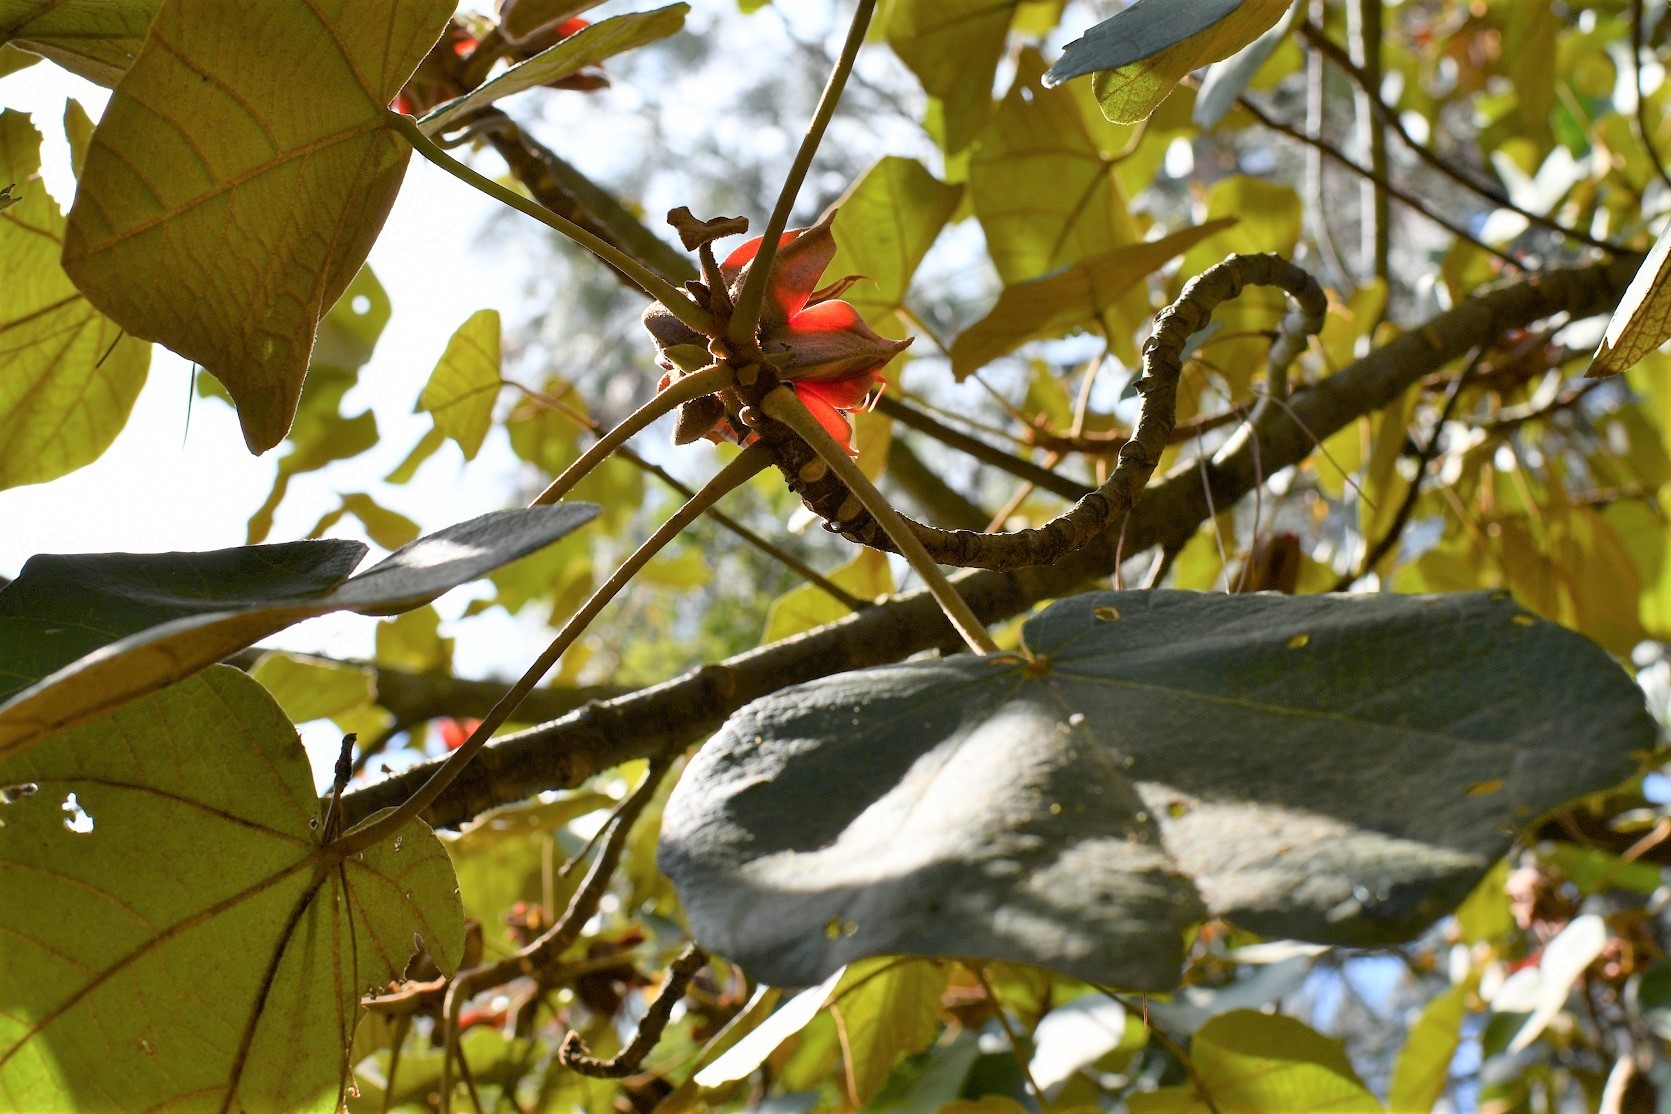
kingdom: Plantae
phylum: Tracheophyta
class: Magnoliopsida
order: Malvales
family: Malvaceae
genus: Chiranthodendron
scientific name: Chiranthodendron pentadactylon
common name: Mexican-hat-plant
